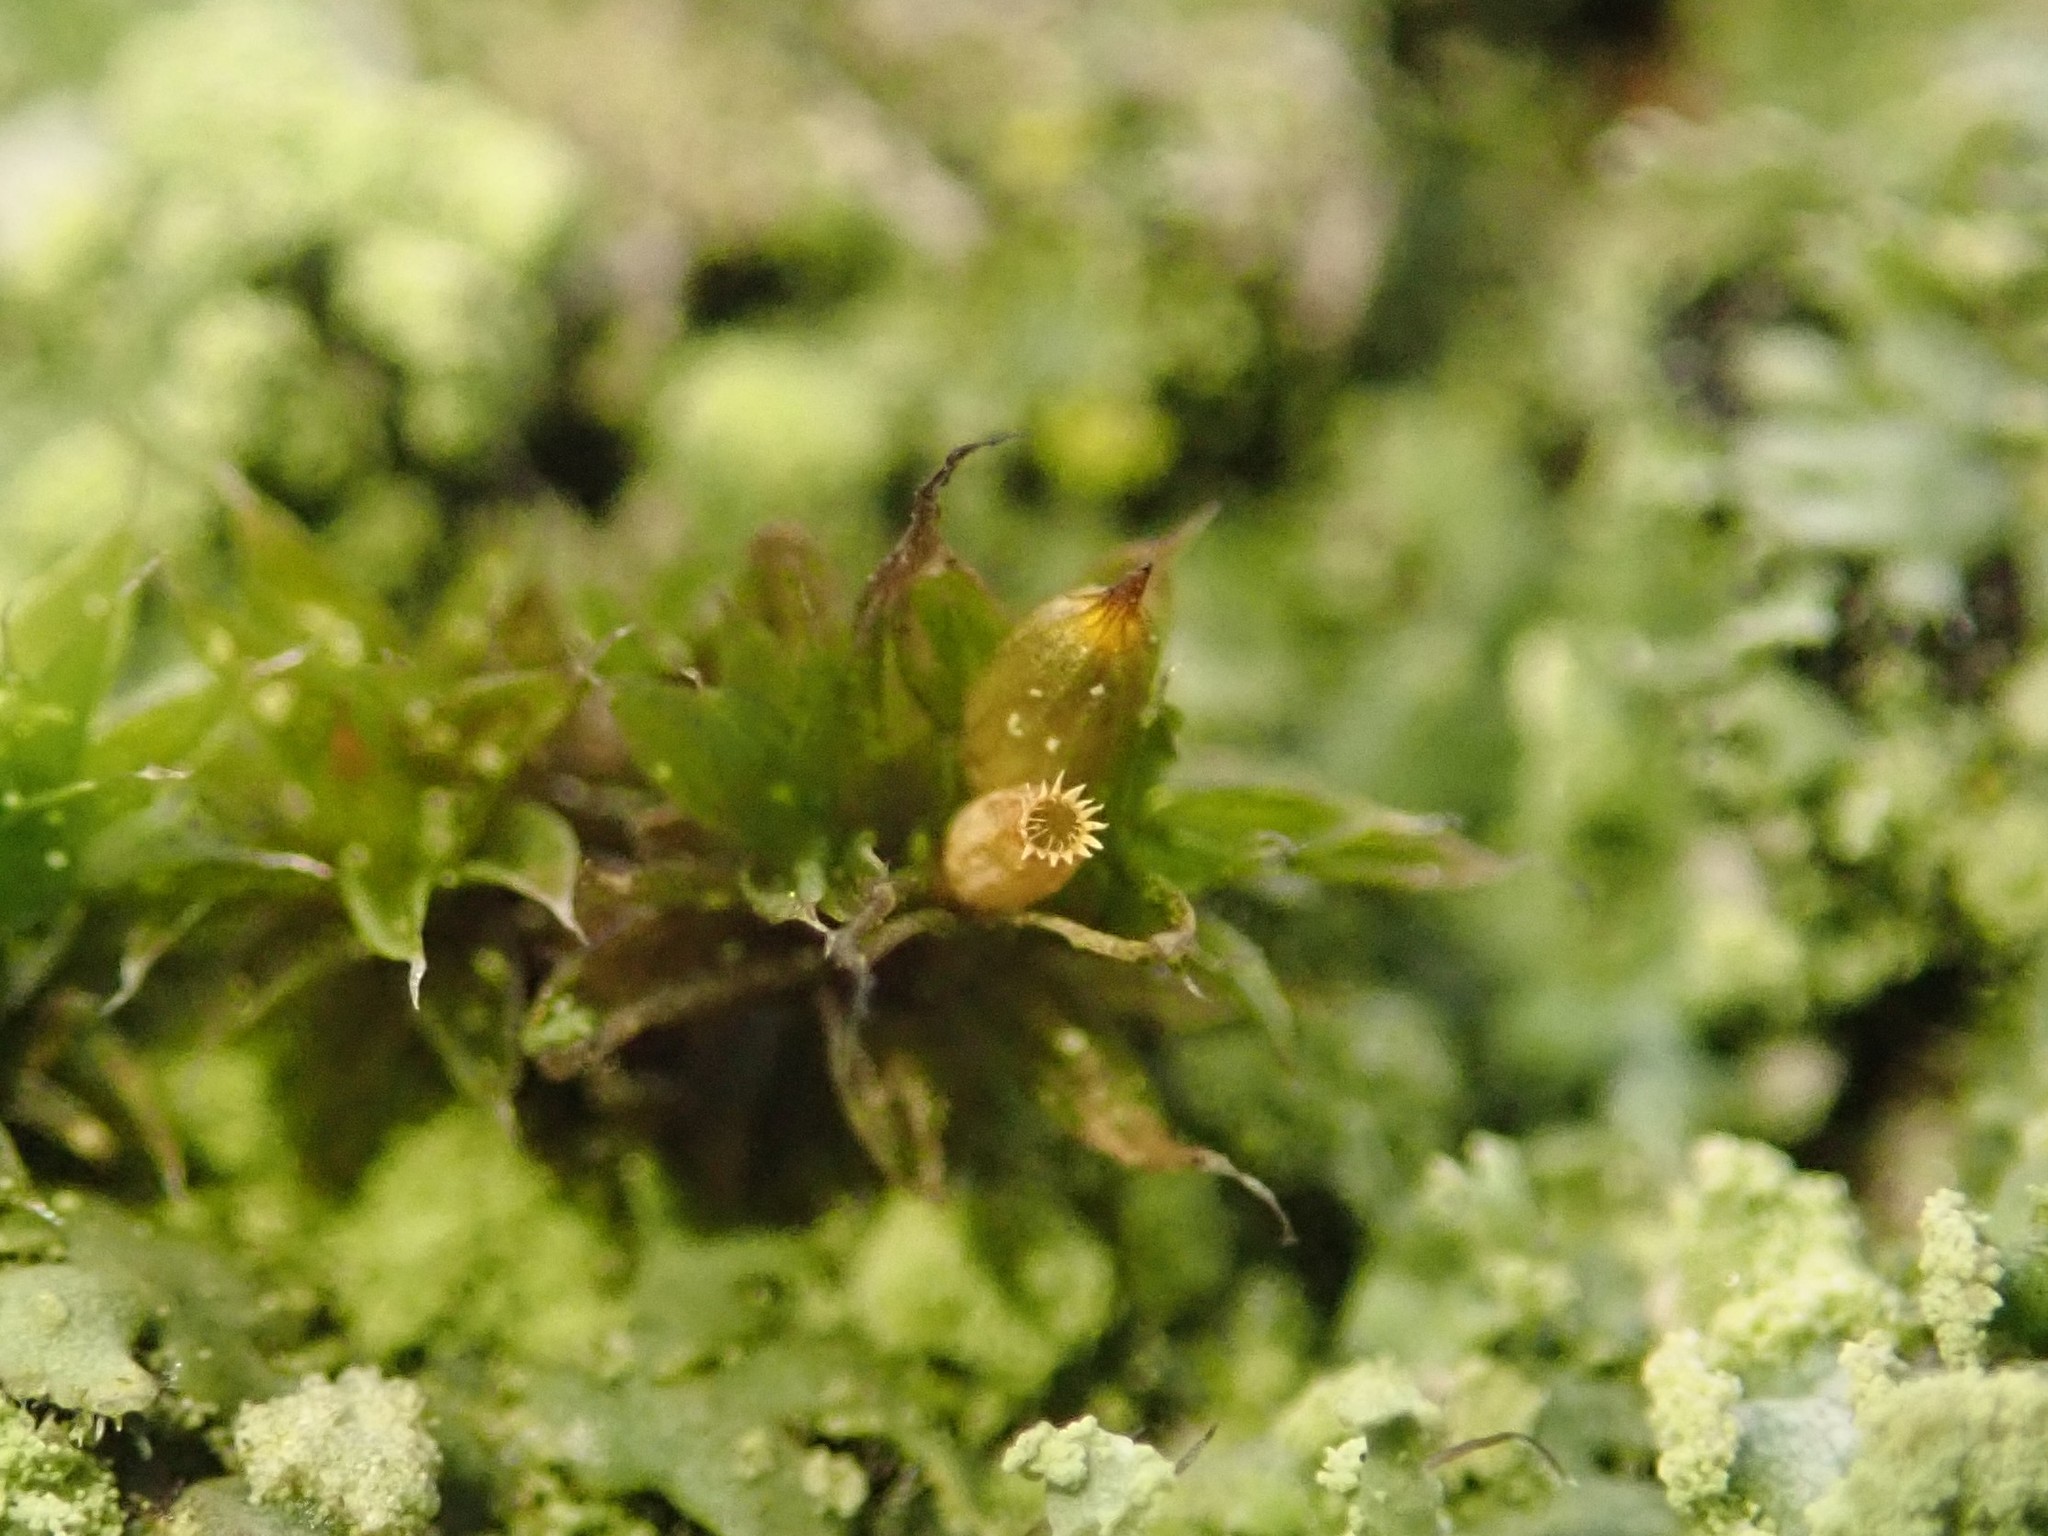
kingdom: Plantae
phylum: Bryophyta
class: Bryopsida
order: Orthotrichales
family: Orthotrichaceae
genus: Orthotrichum
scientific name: Orthotrichum diaphanum
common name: White-tipped bristle-moss
